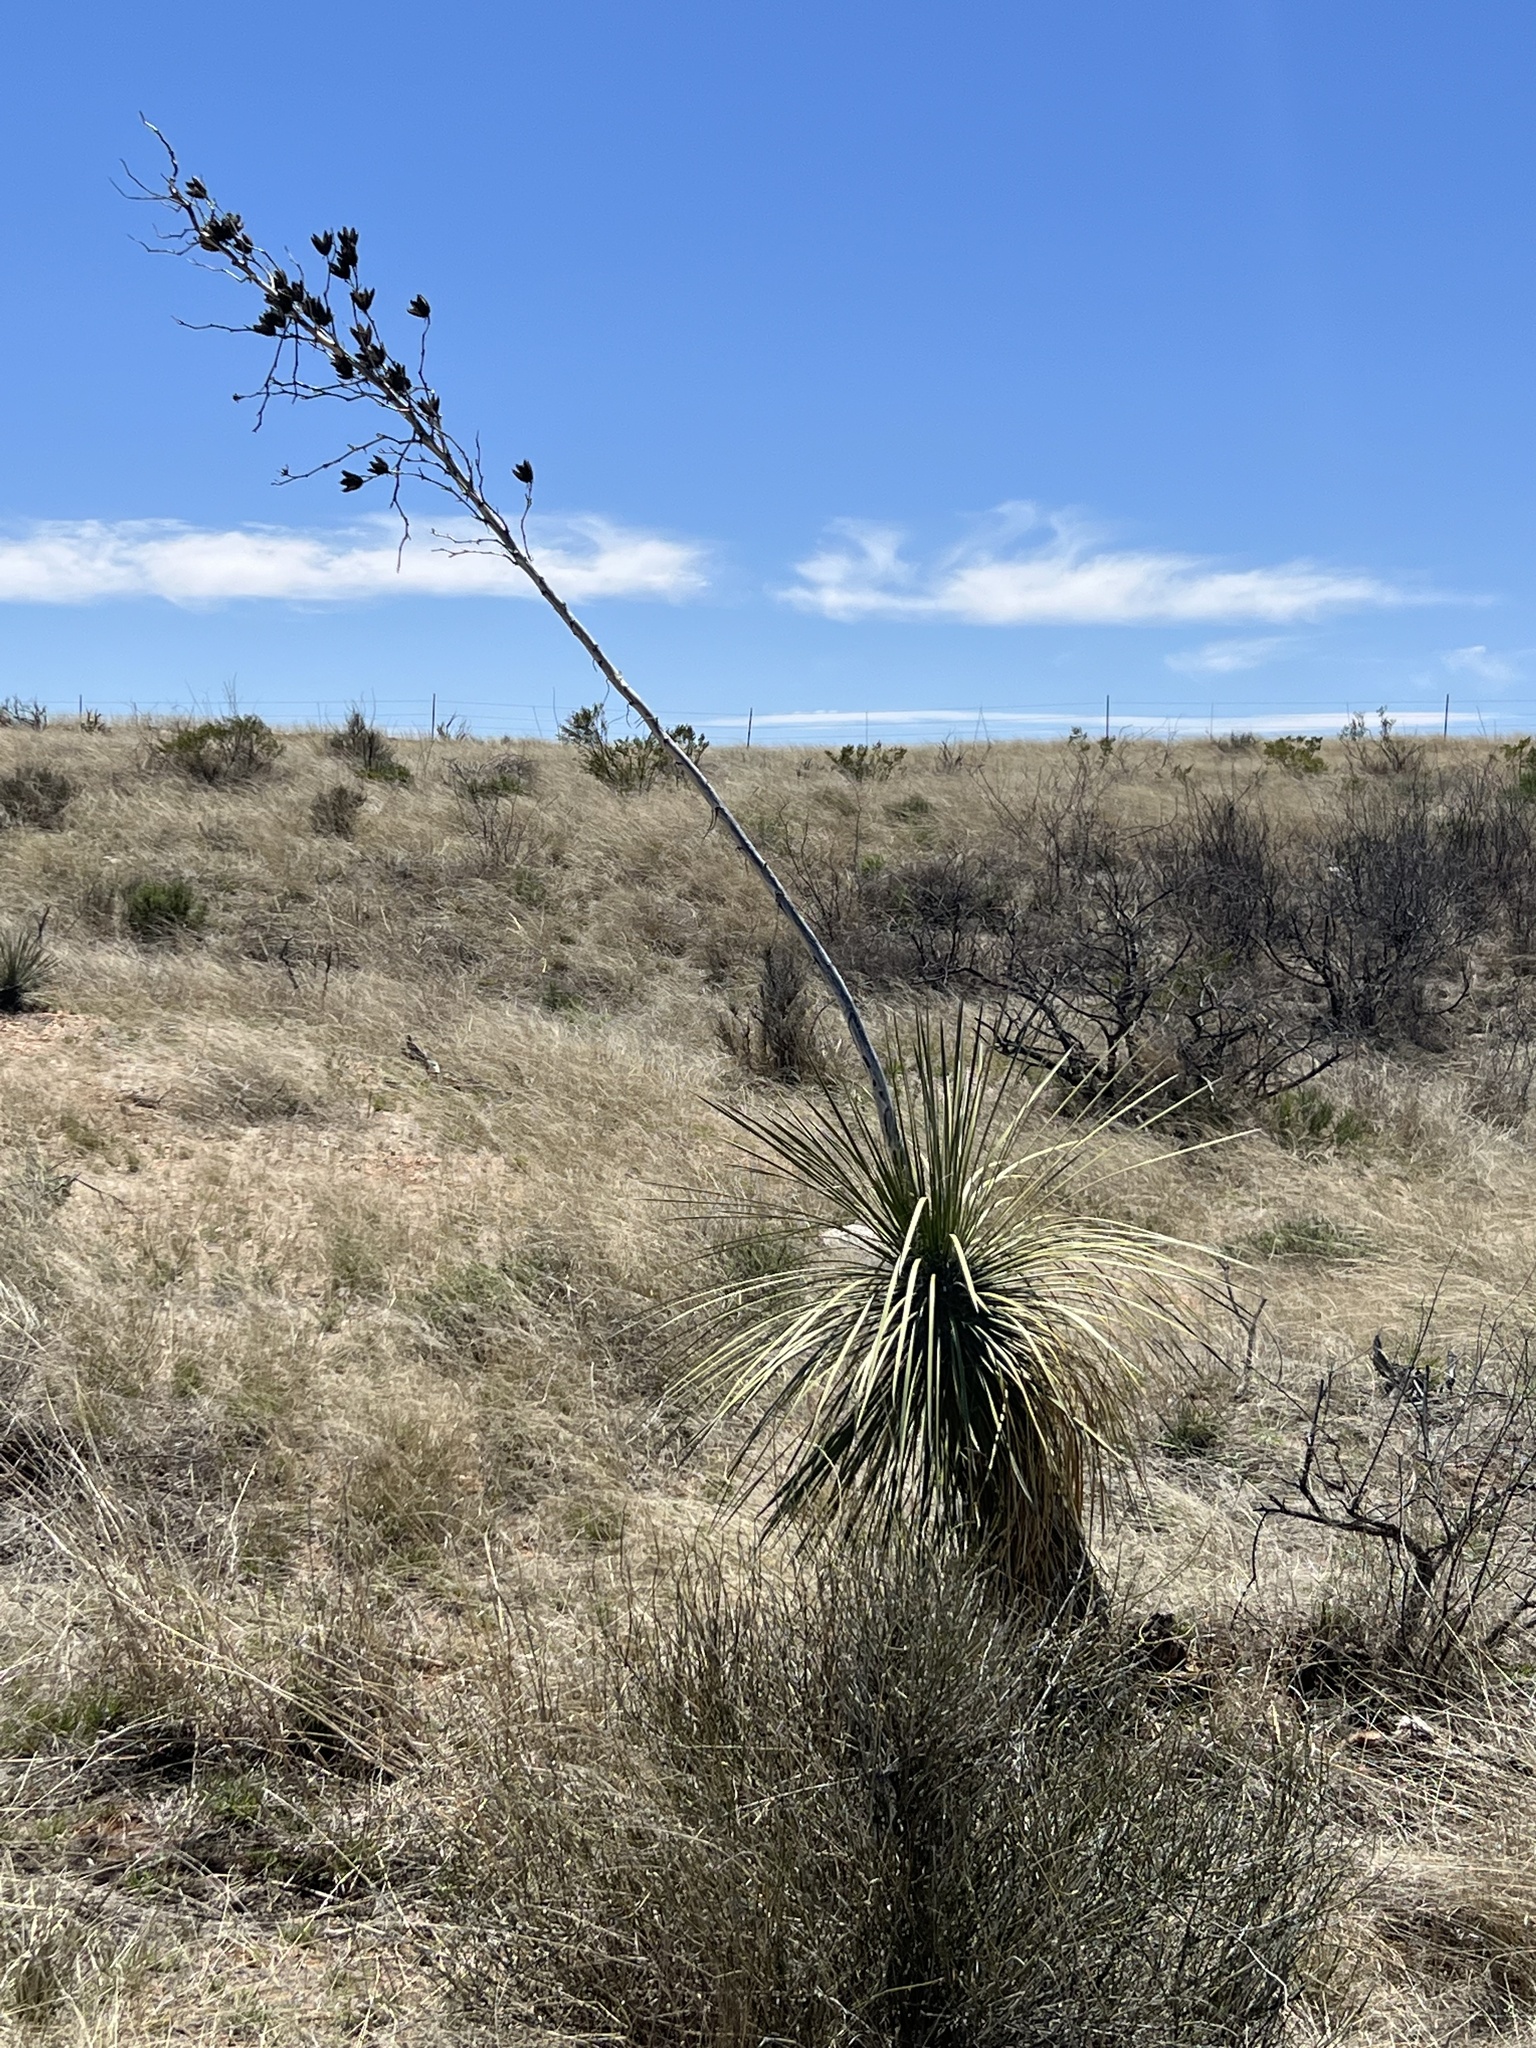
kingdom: Plantae
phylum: Tracheophyta
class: Liliopsida
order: Asparagales
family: Asparagaceae
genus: Yucca
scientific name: Yucca elata
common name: Palmella
